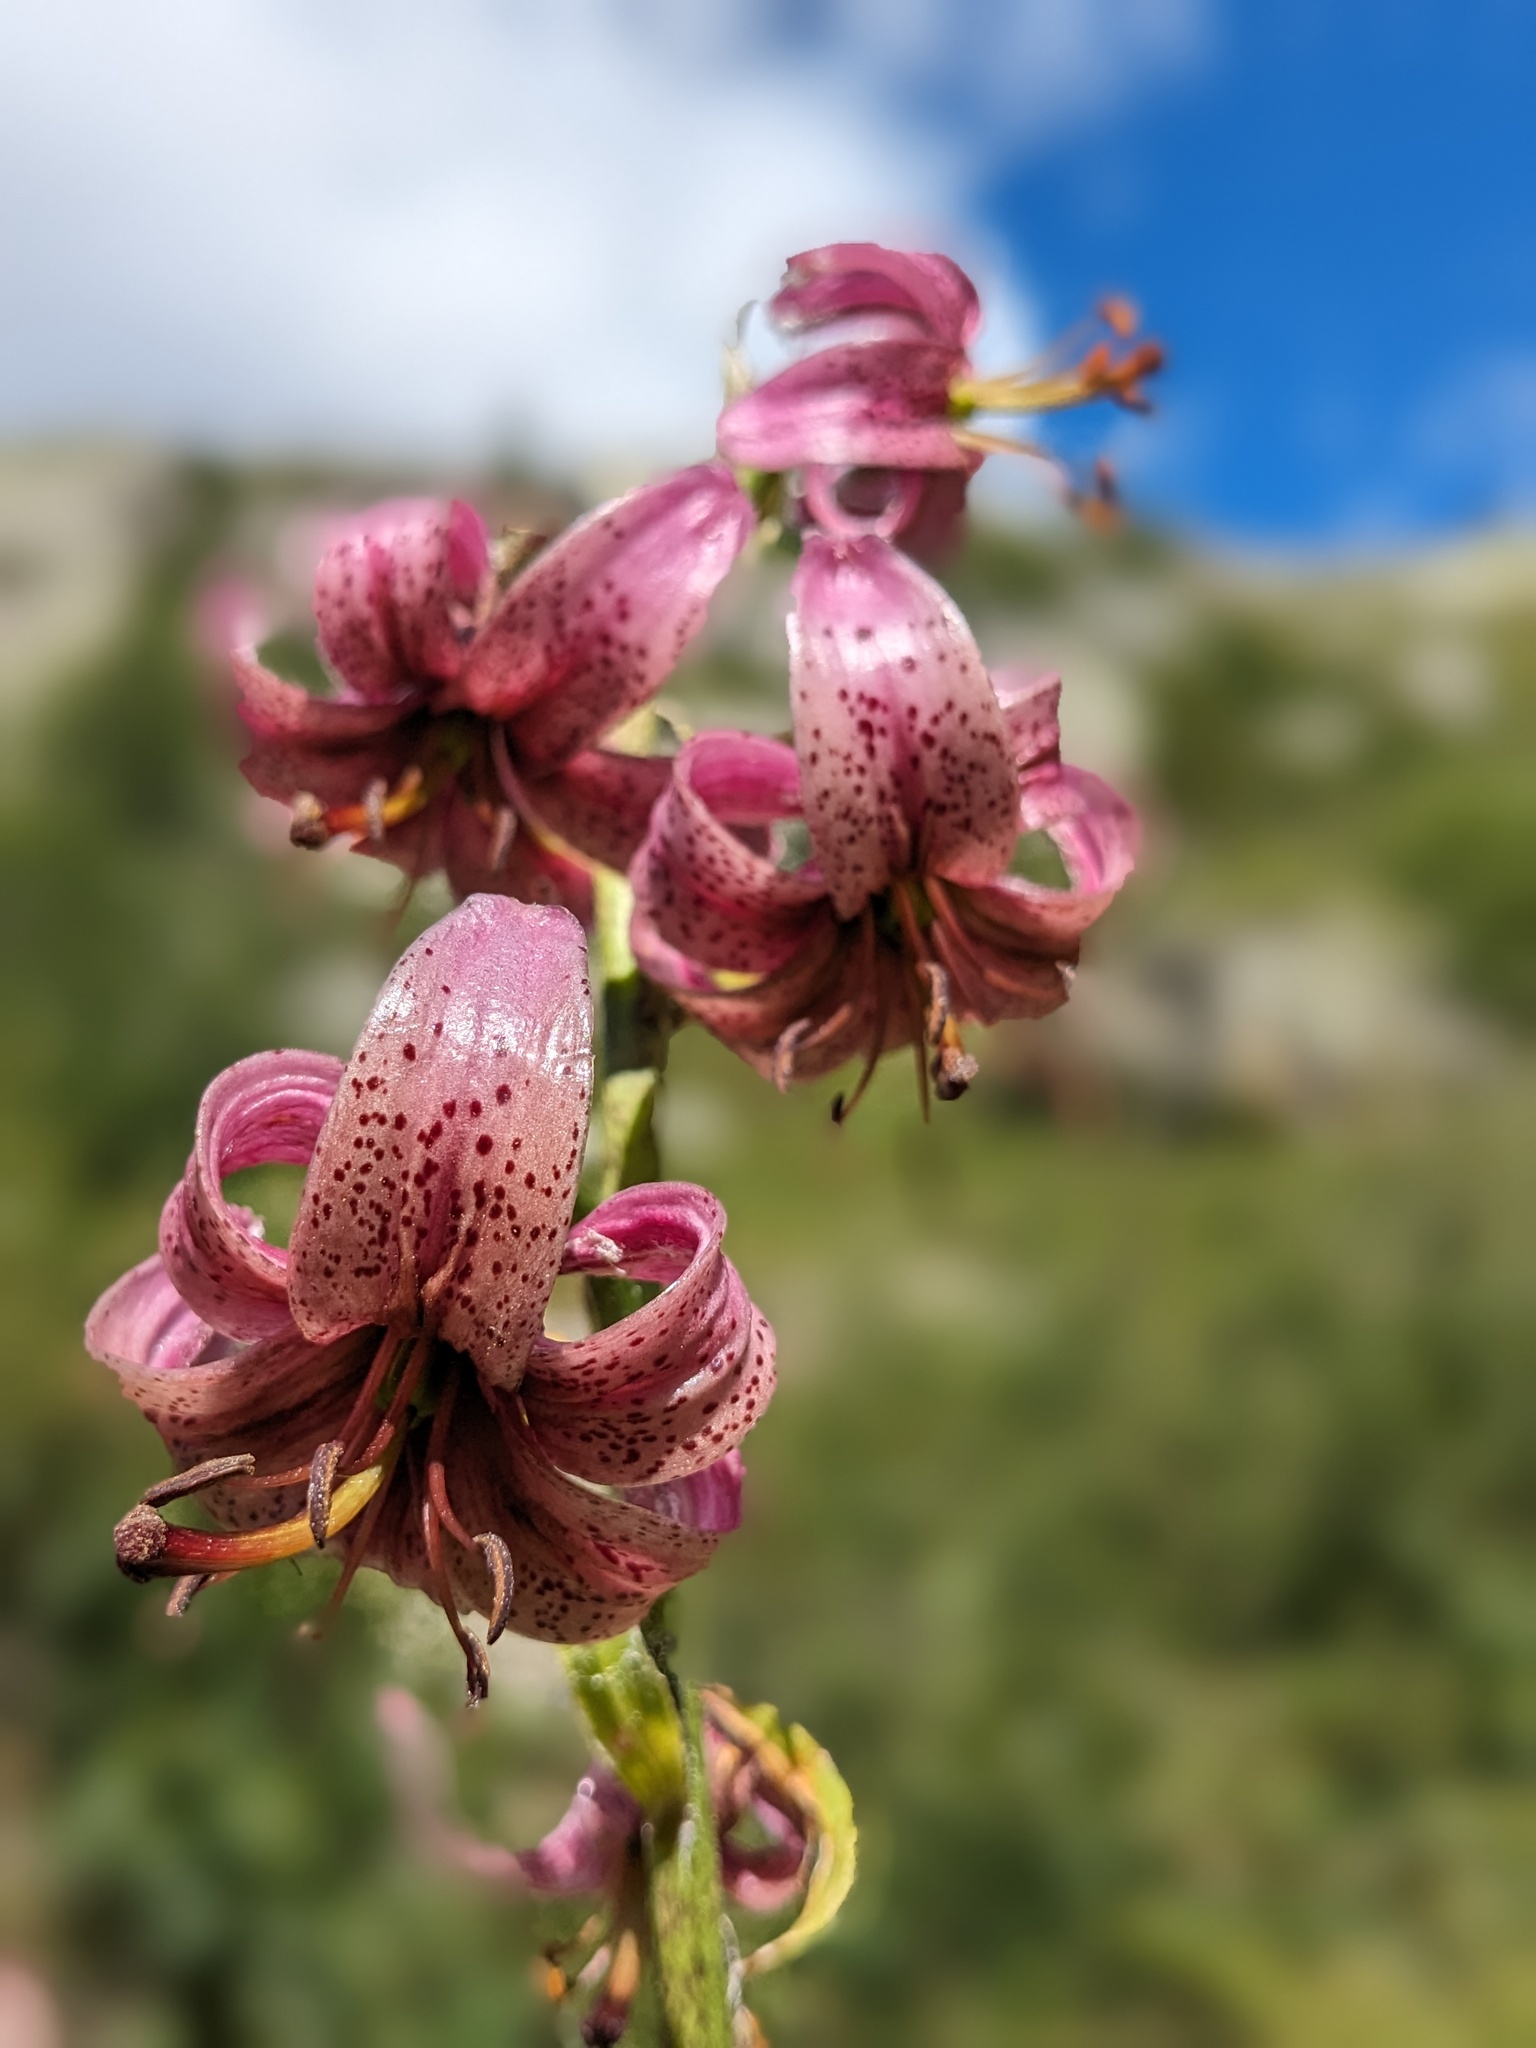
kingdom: Plantae
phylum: Tracheophyta
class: Liliopsida
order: Liliales
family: Liliaceae
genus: Lilium
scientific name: Lilium martagon
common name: Martagon lily
